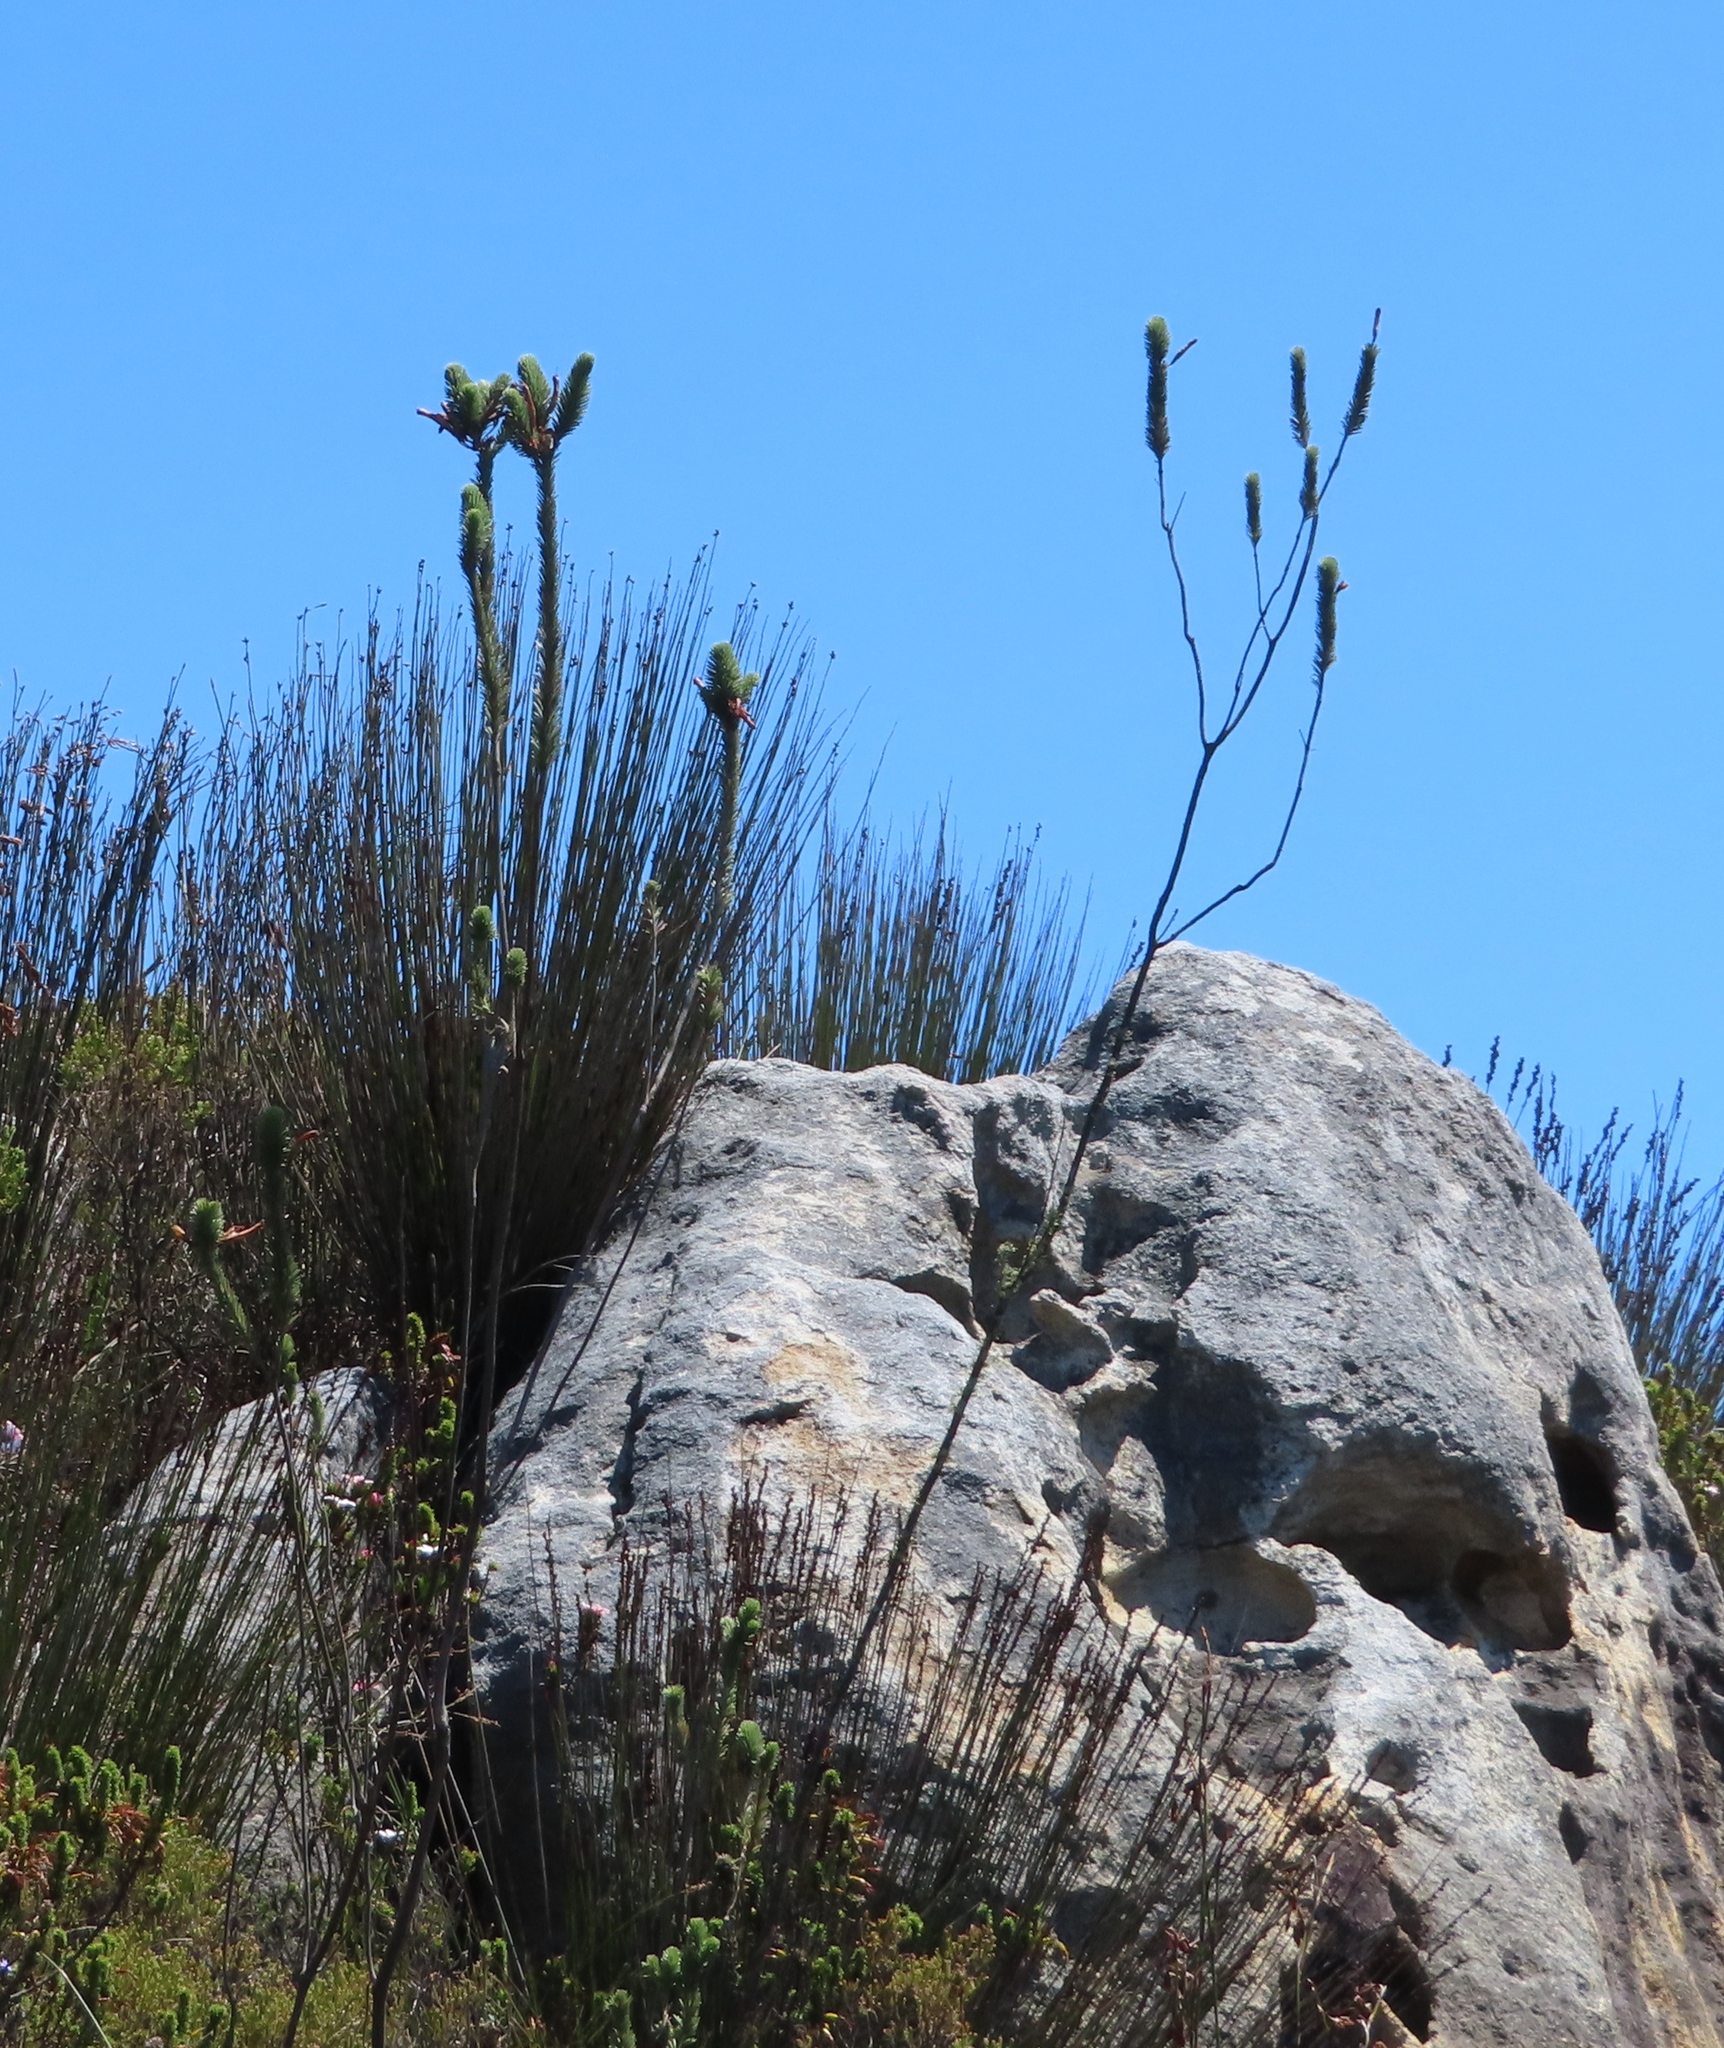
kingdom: Plantae
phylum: Tracheophyta
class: Magnoliopsida
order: Ericales
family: Ericaceae
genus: Erica
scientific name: Erica fascicularis
